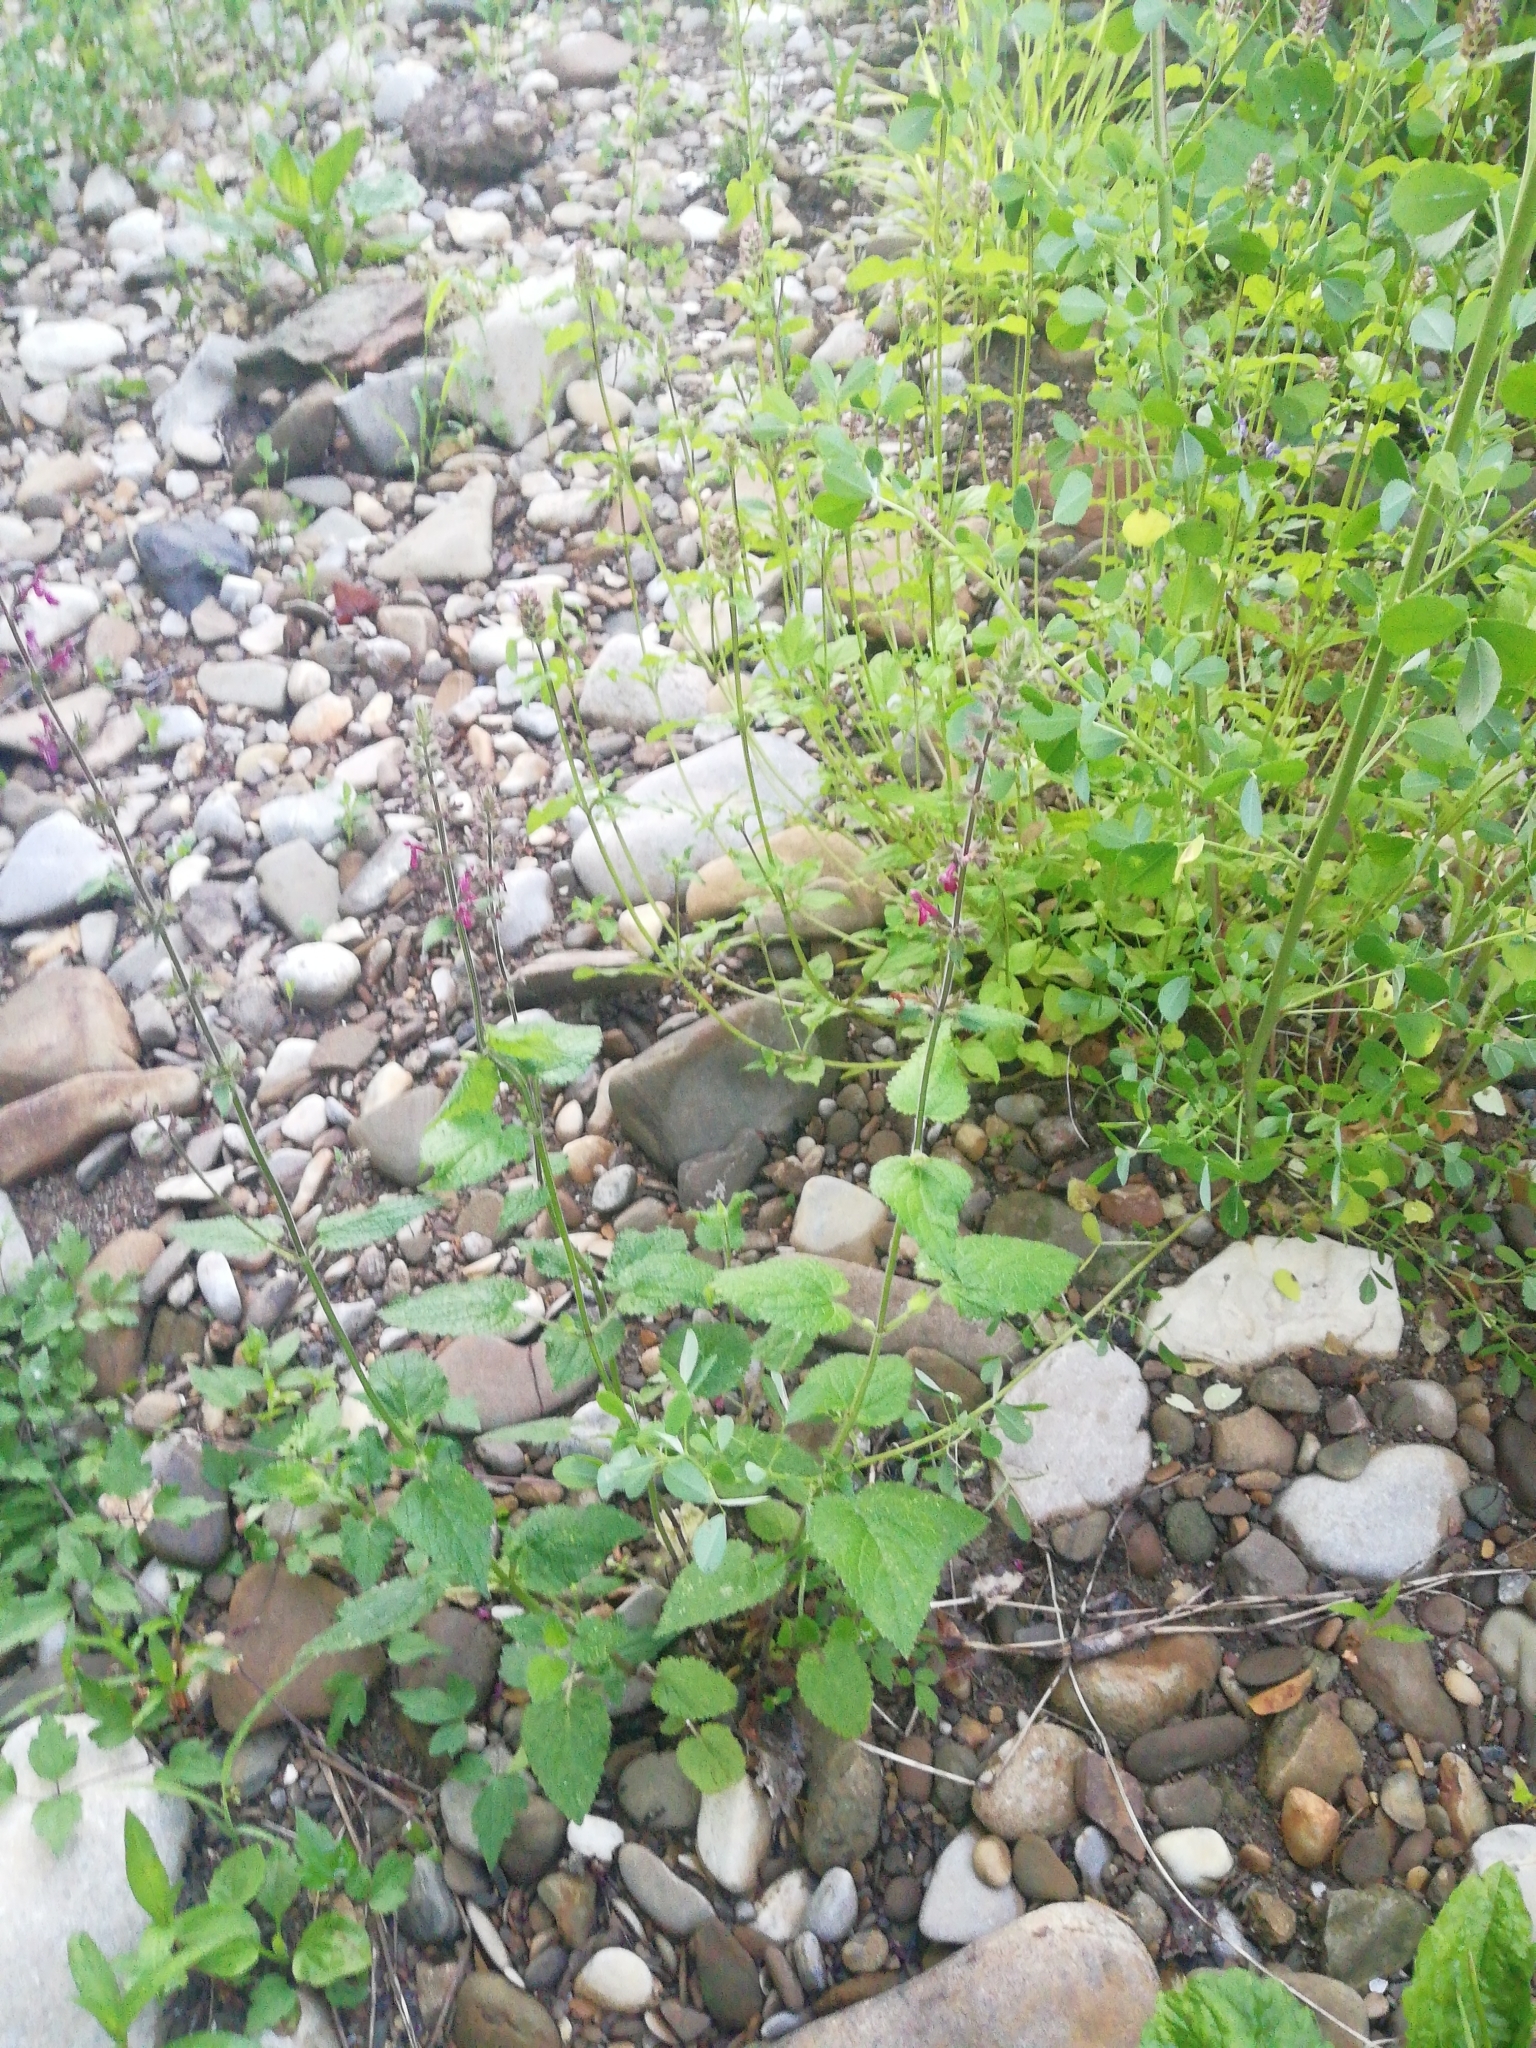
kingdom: Plantae
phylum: Tracheophyta
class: Magnoliopsida
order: Lamiales
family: Lamiaceae
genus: Stachys
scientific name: Stachys sylvatica
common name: Hedge woundwort
